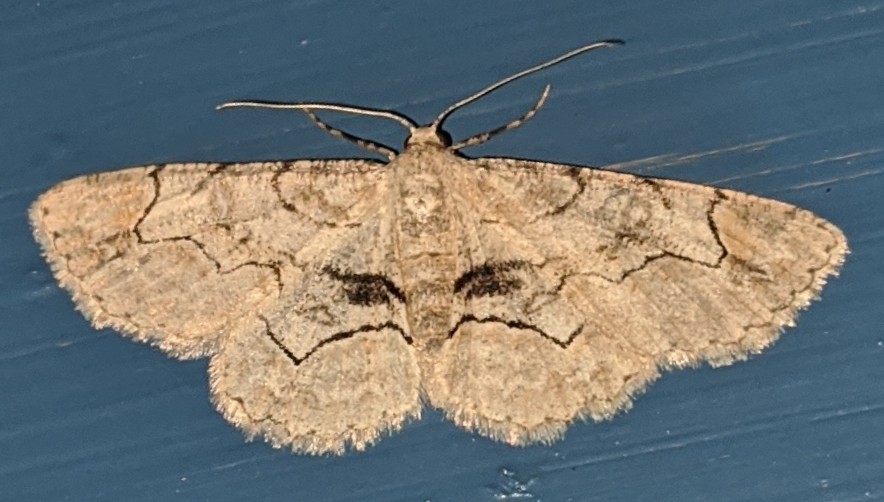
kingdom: Animalia
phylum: Arthropoda
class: Insecta
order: Lepidoptera
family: Geometridae
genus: Iridopsis
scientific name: Iridopsis larvaria
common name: Bent-line gray
